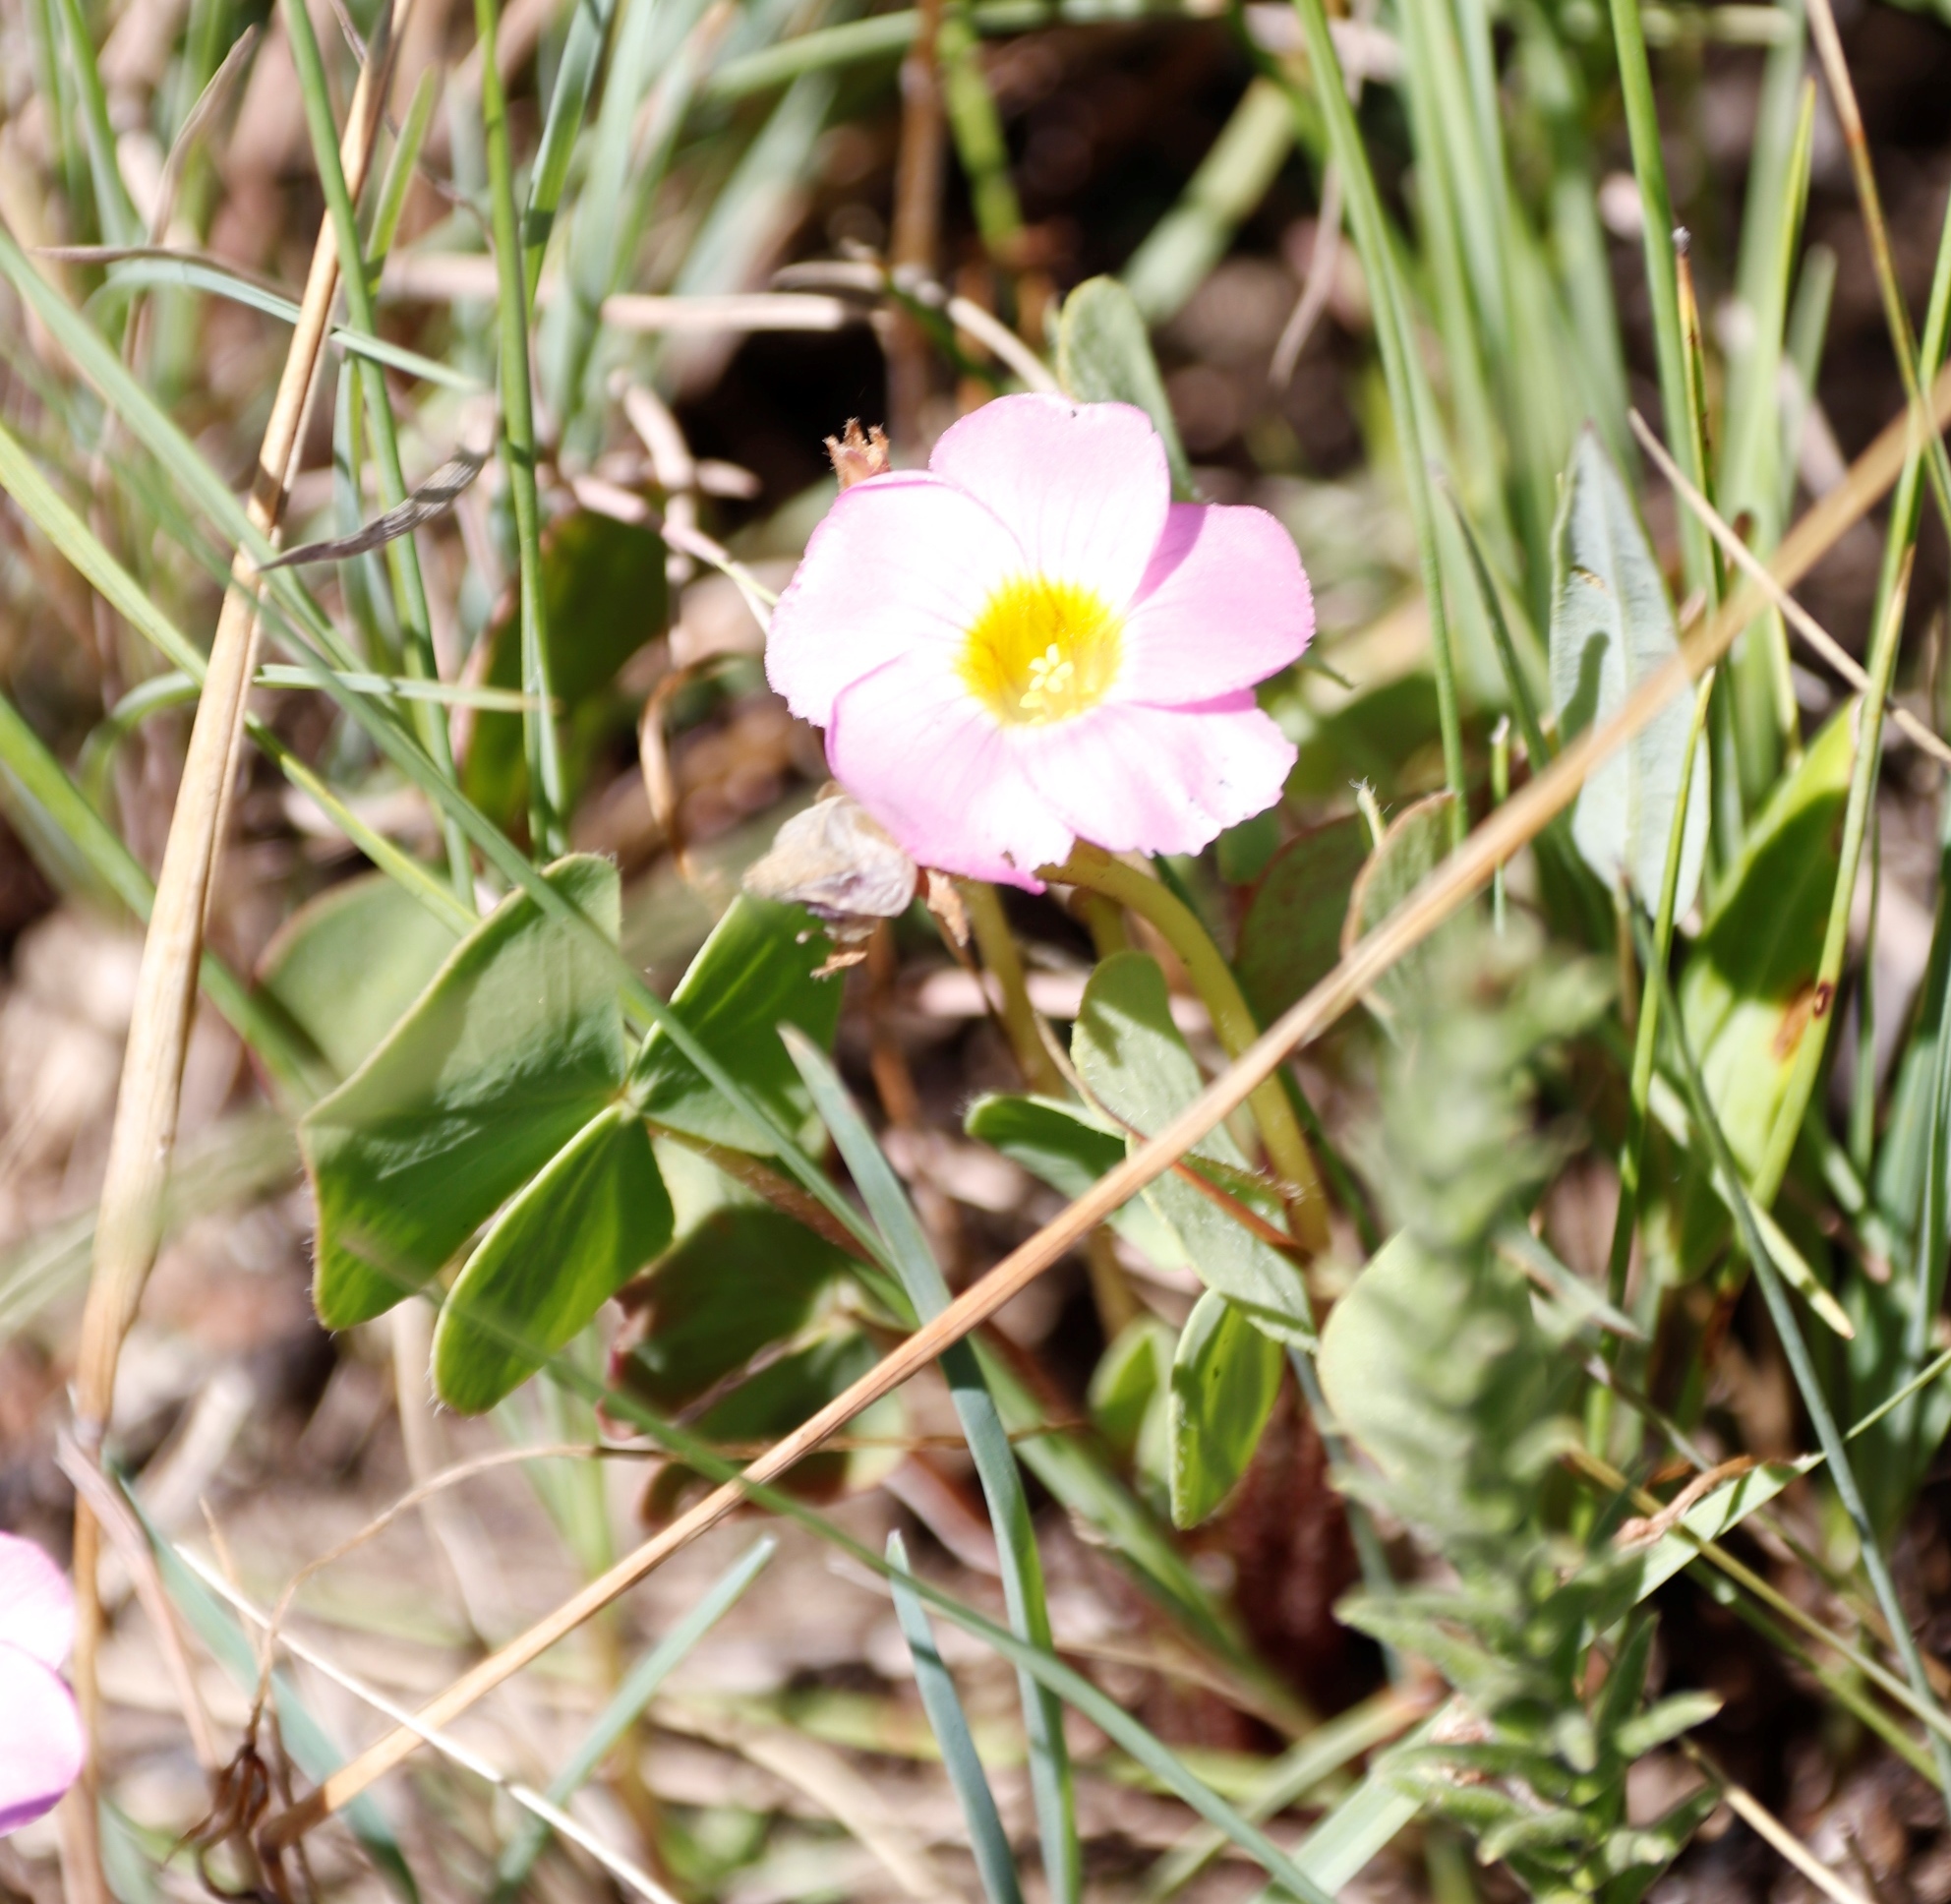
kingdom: Plantae
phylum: Tracheophyta
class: Magnoliopsida
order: Oxalidales
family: Oxalidaceae
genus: Oxalis
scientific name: Oxalis obliquifolia
